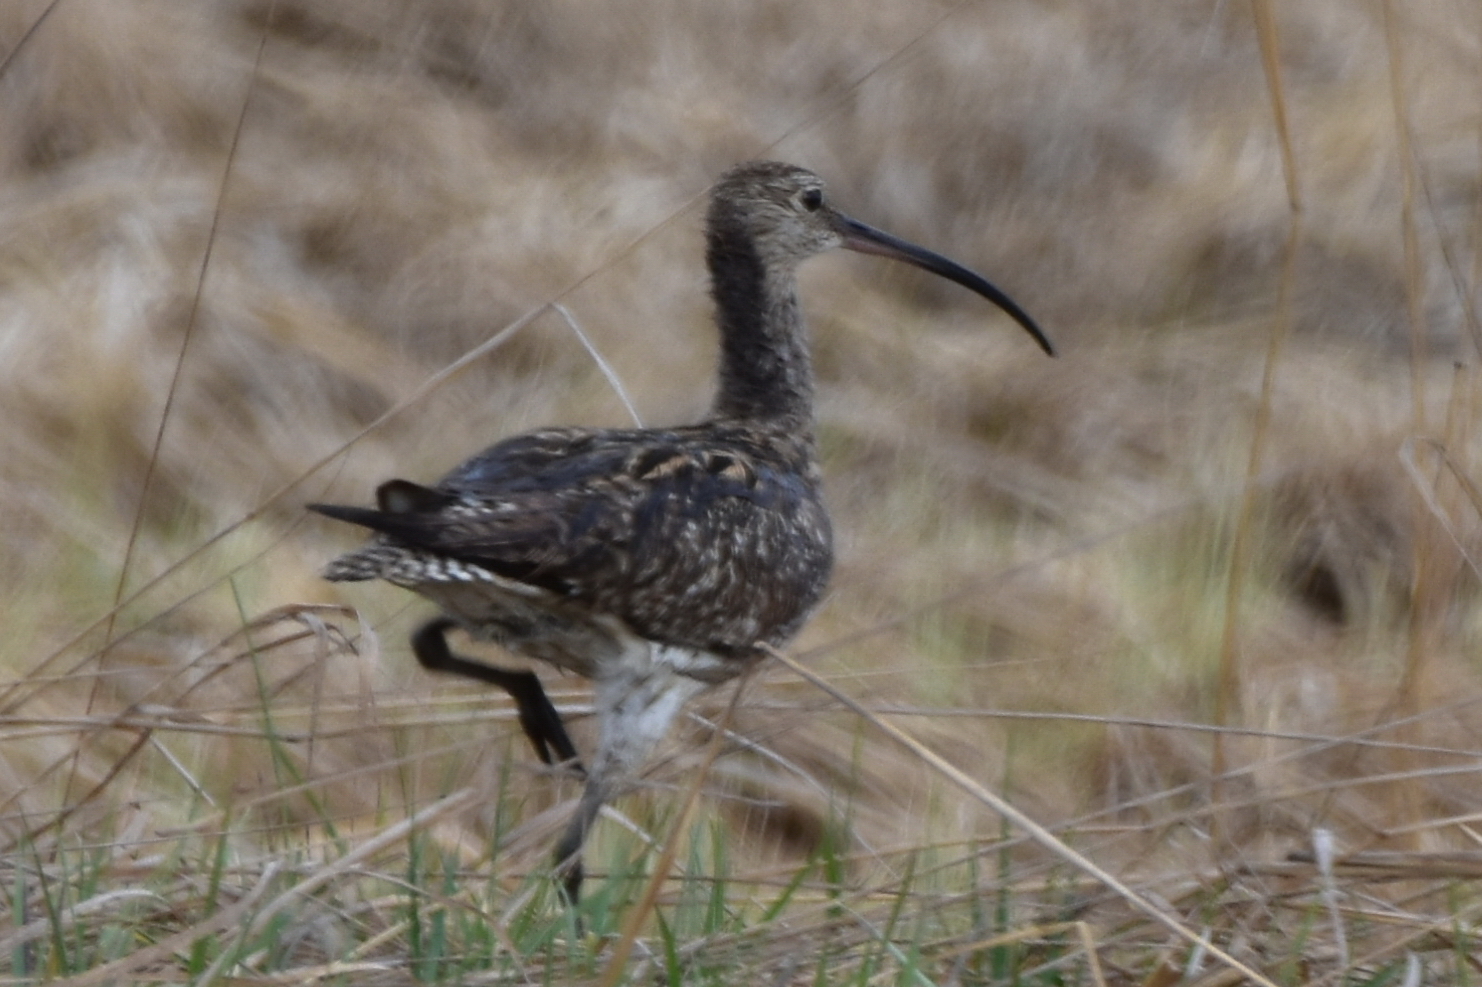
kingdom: Animalia
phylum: Chordata
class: Aves
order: Charadriiformes
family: Scolopacidae
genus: Numenius
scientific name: Numenius arquata
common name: Eurasian curlew
